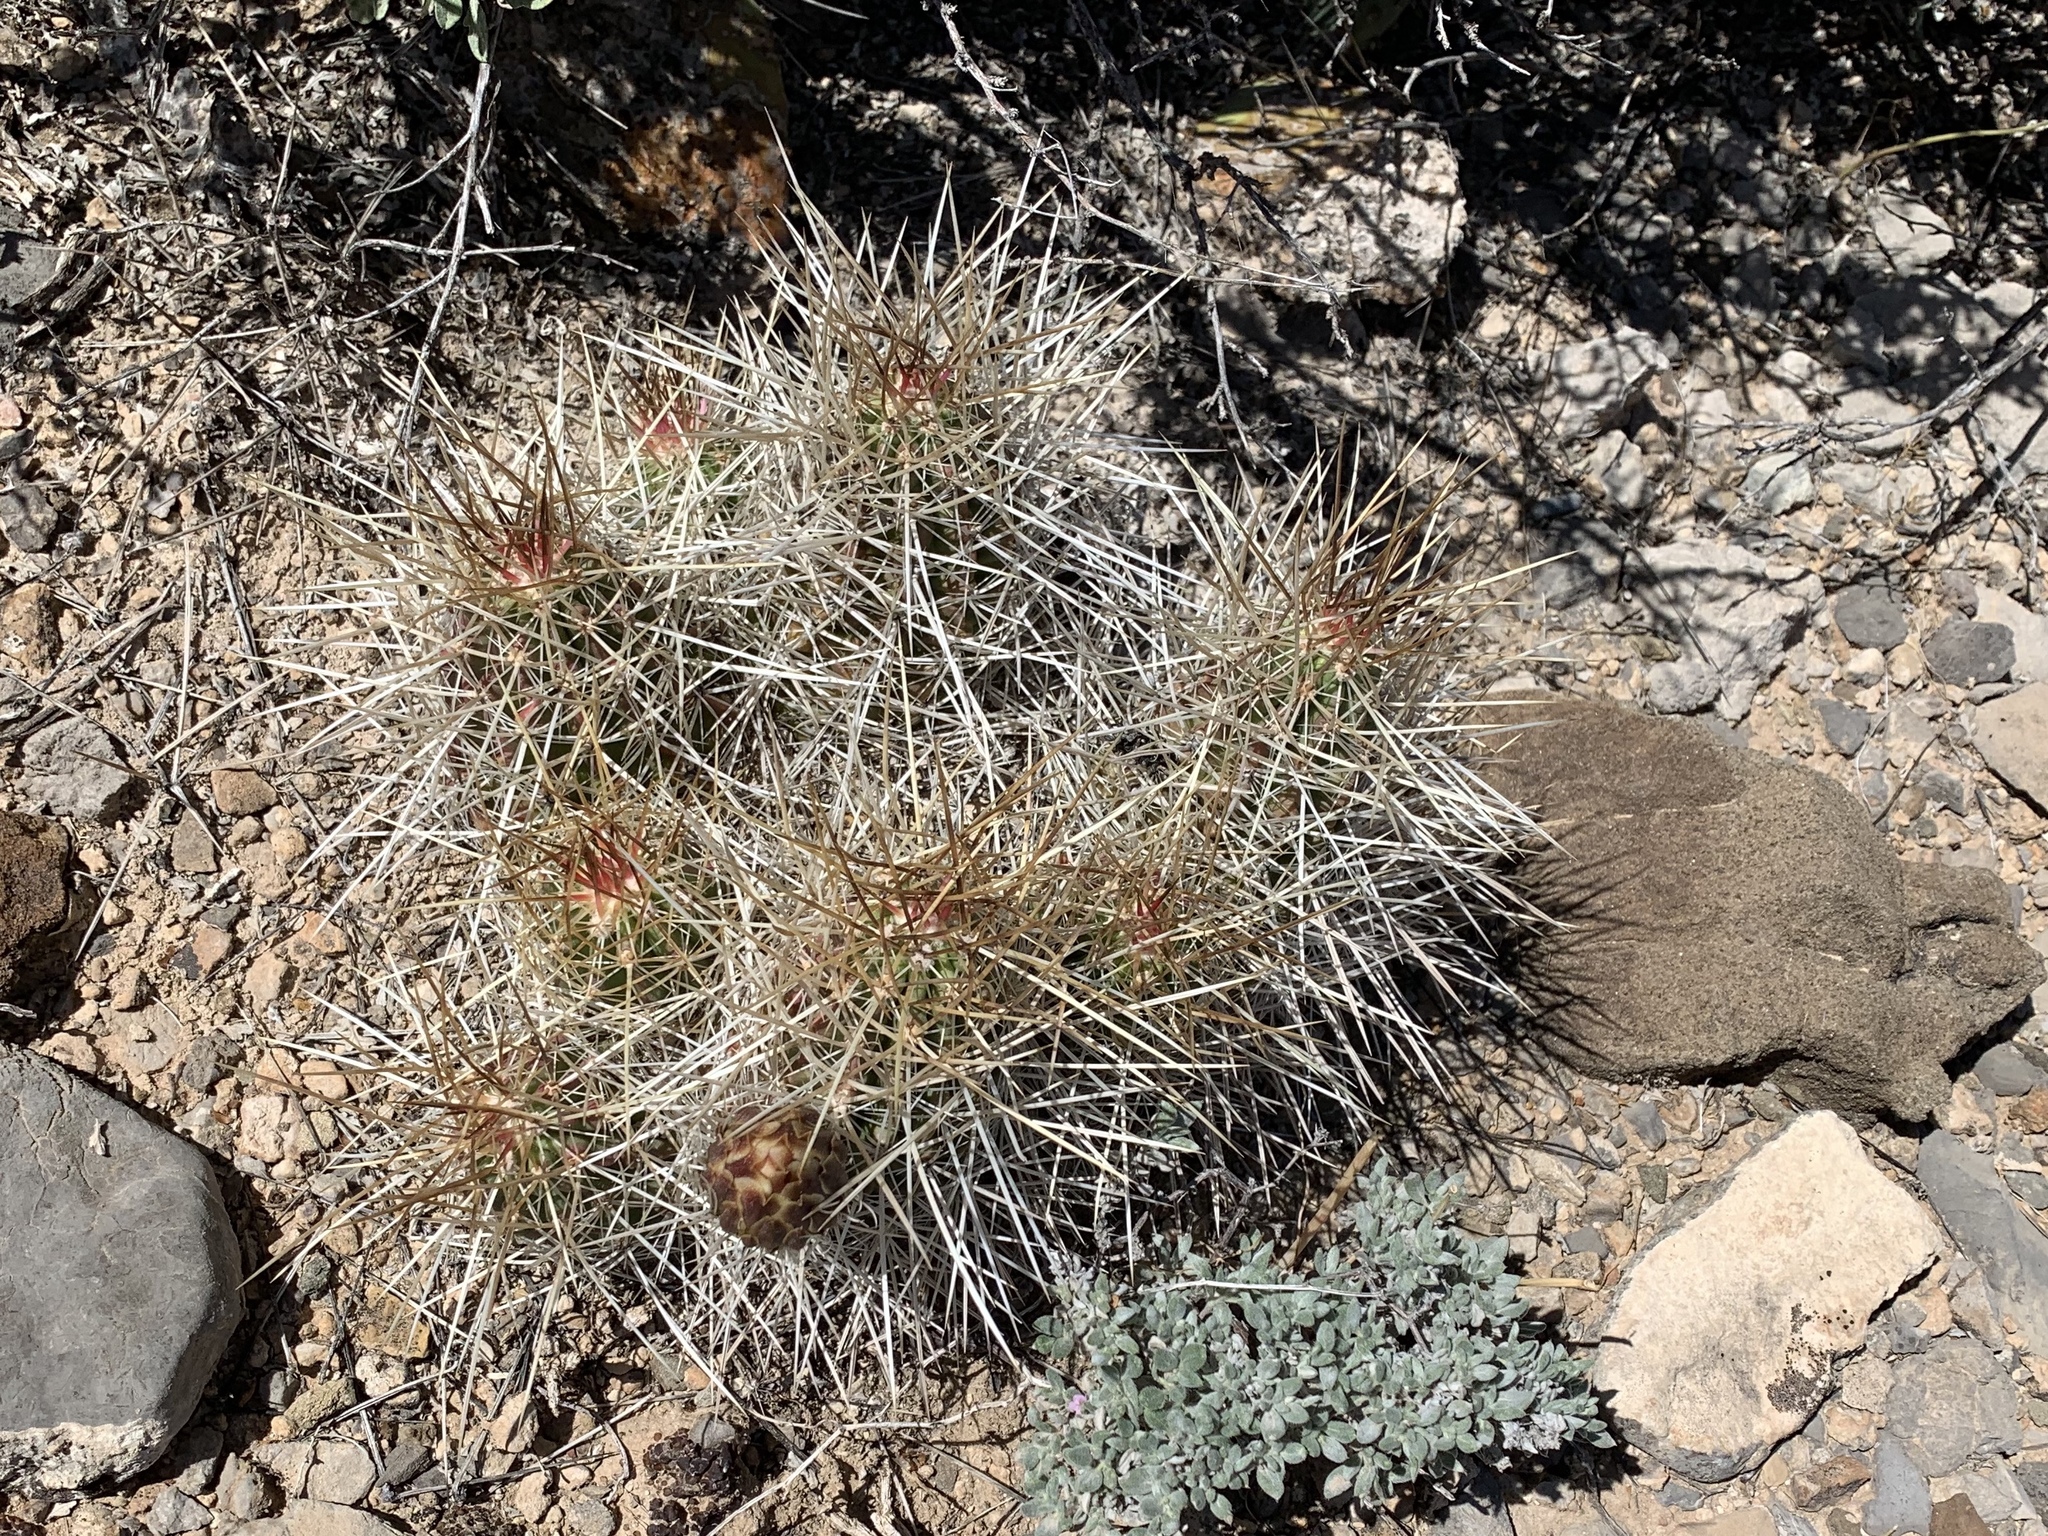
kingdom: Plantae
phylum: Tracheophyta
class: Magnoliopsida
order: Caryophyllales
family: Cactaceae
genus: Echinocereus
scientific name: Echinocereus stramineus
